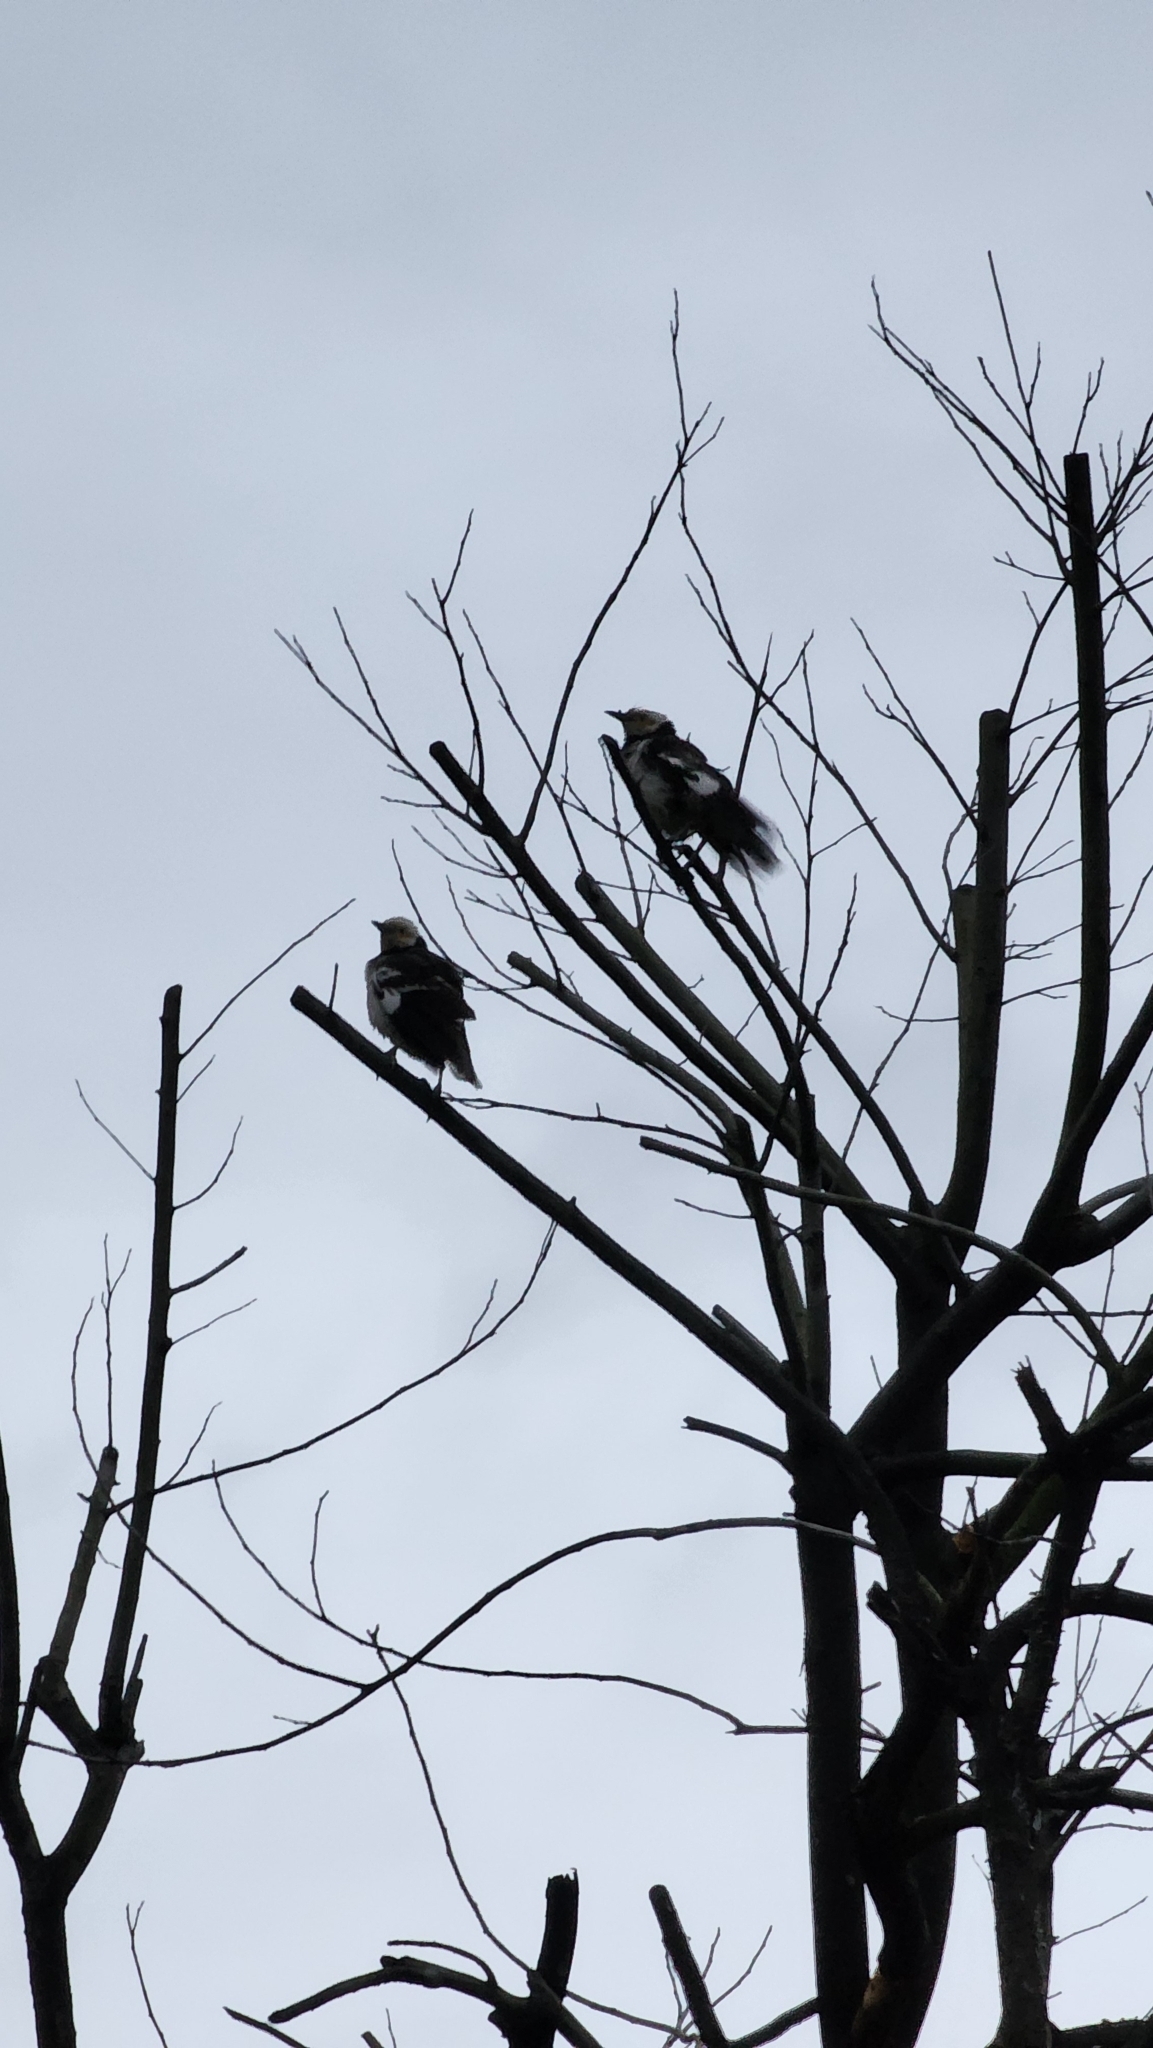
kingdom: Animalia
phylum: Chordata
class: Aves
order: Passeriformes
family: Sturnidae
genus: Gracupica
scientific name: Gracupica nigricollis
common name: Black-collared starling
